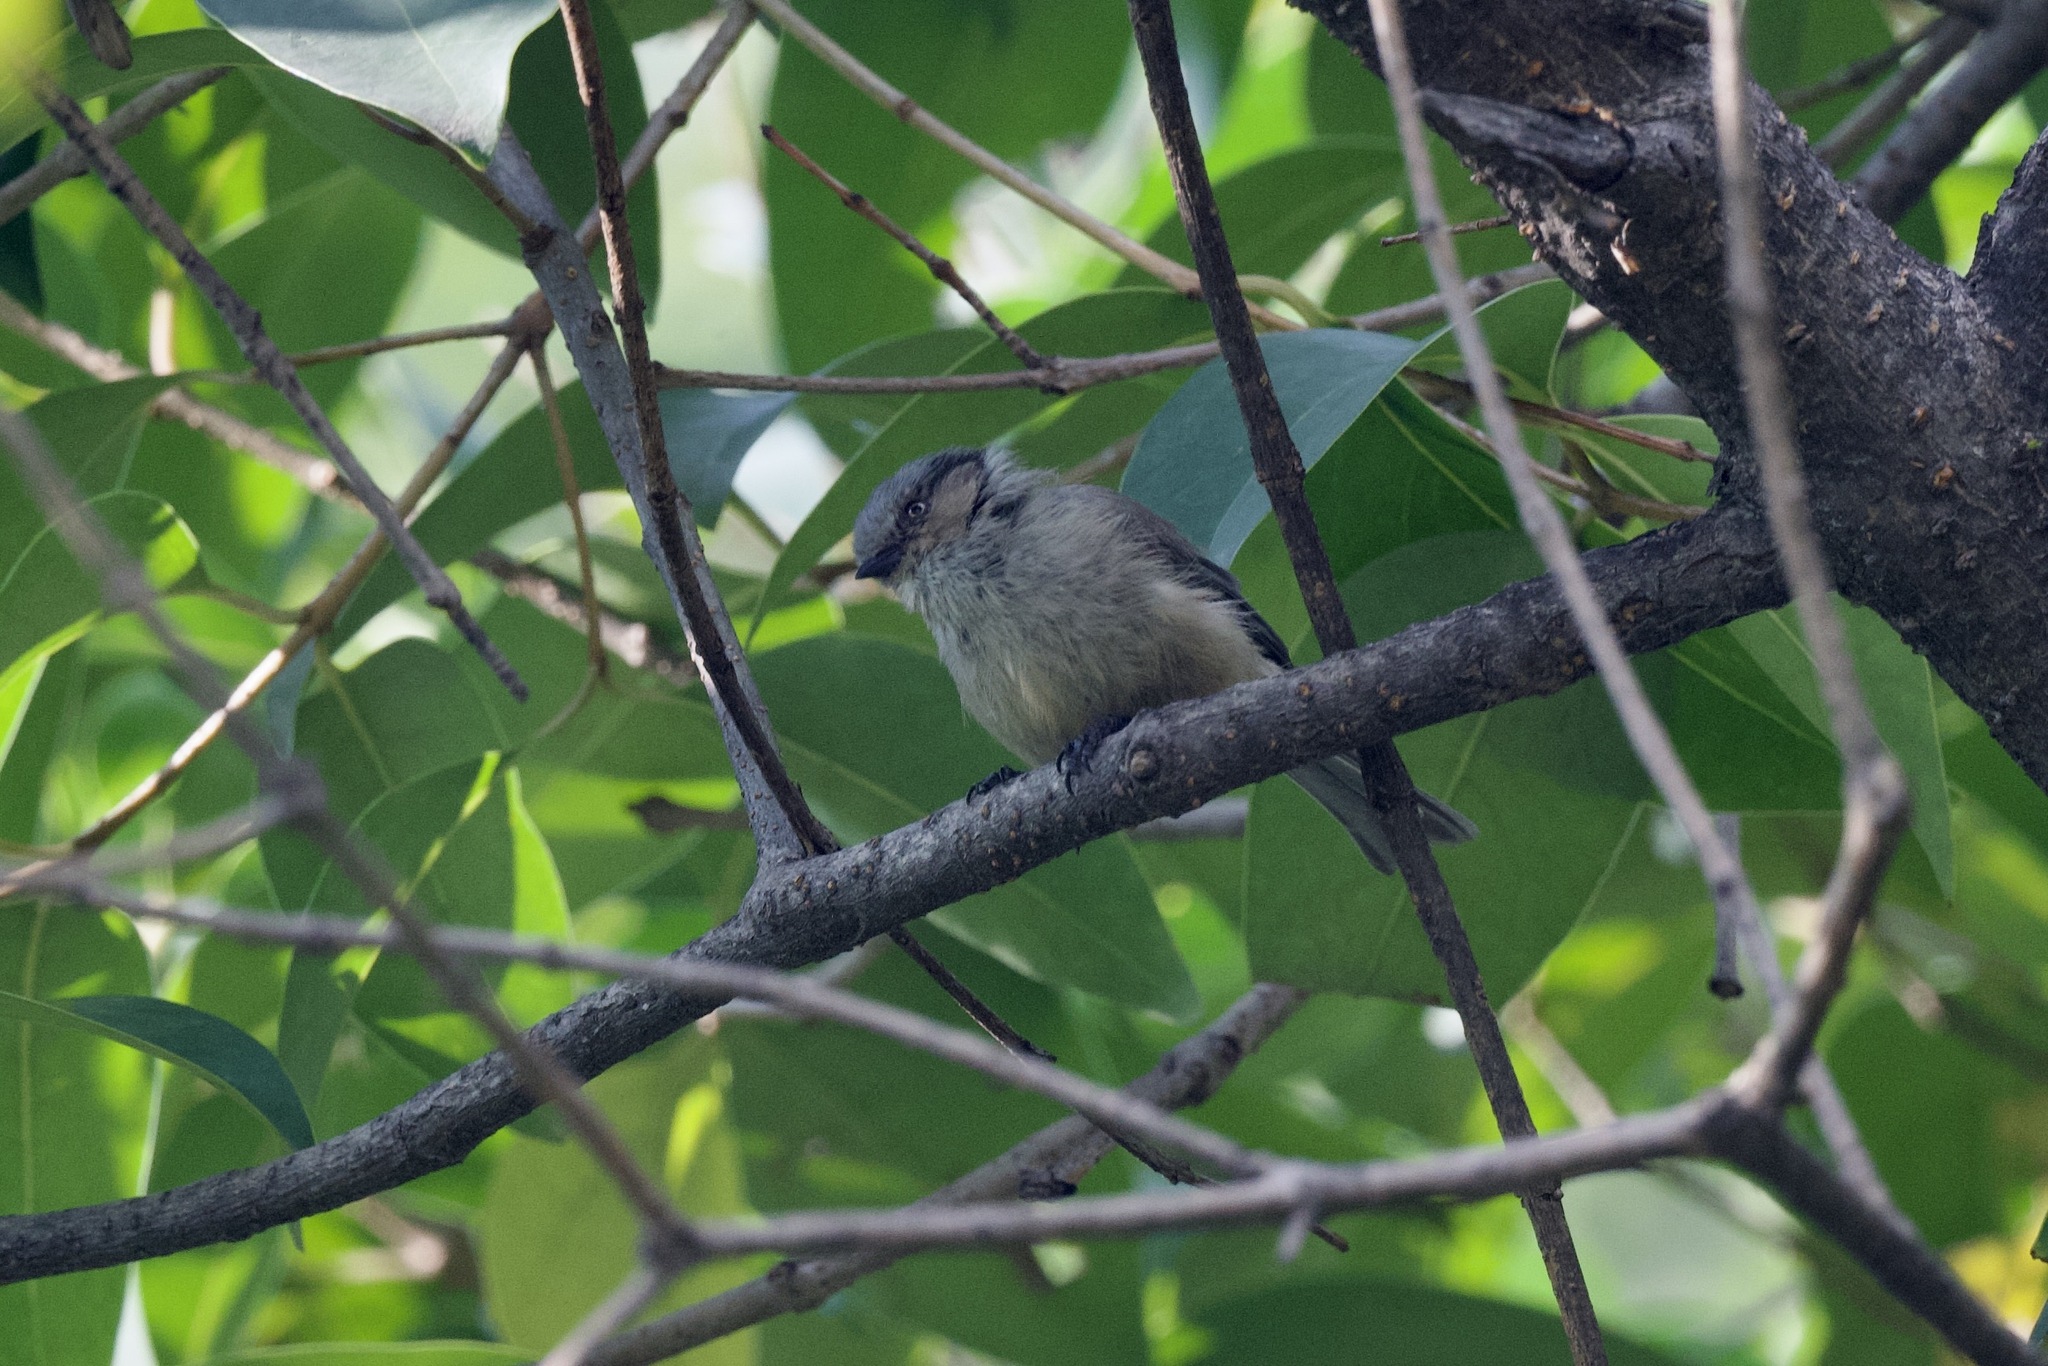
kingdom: Animalia
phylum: Chordata
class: Aves
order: Passeriformes
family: Aegithalidae
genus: Psaltriparus
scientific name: Psaltriparus minimus
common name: American bushtit
